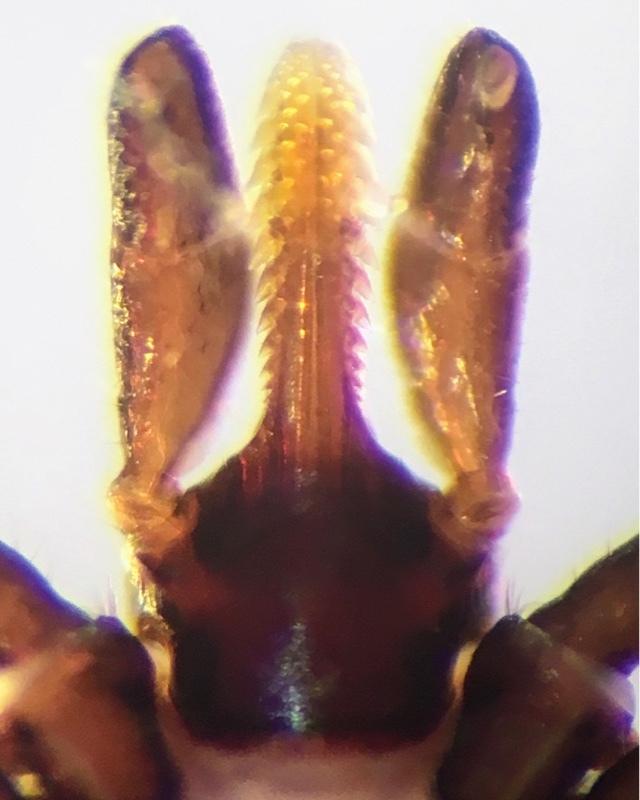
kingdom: Animalia
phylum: Arthropoda
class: Arachnida
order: Ixodida
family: Ixodidae
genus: Ixodes
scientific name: Ixodes ricinus
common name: Castor bean tick
